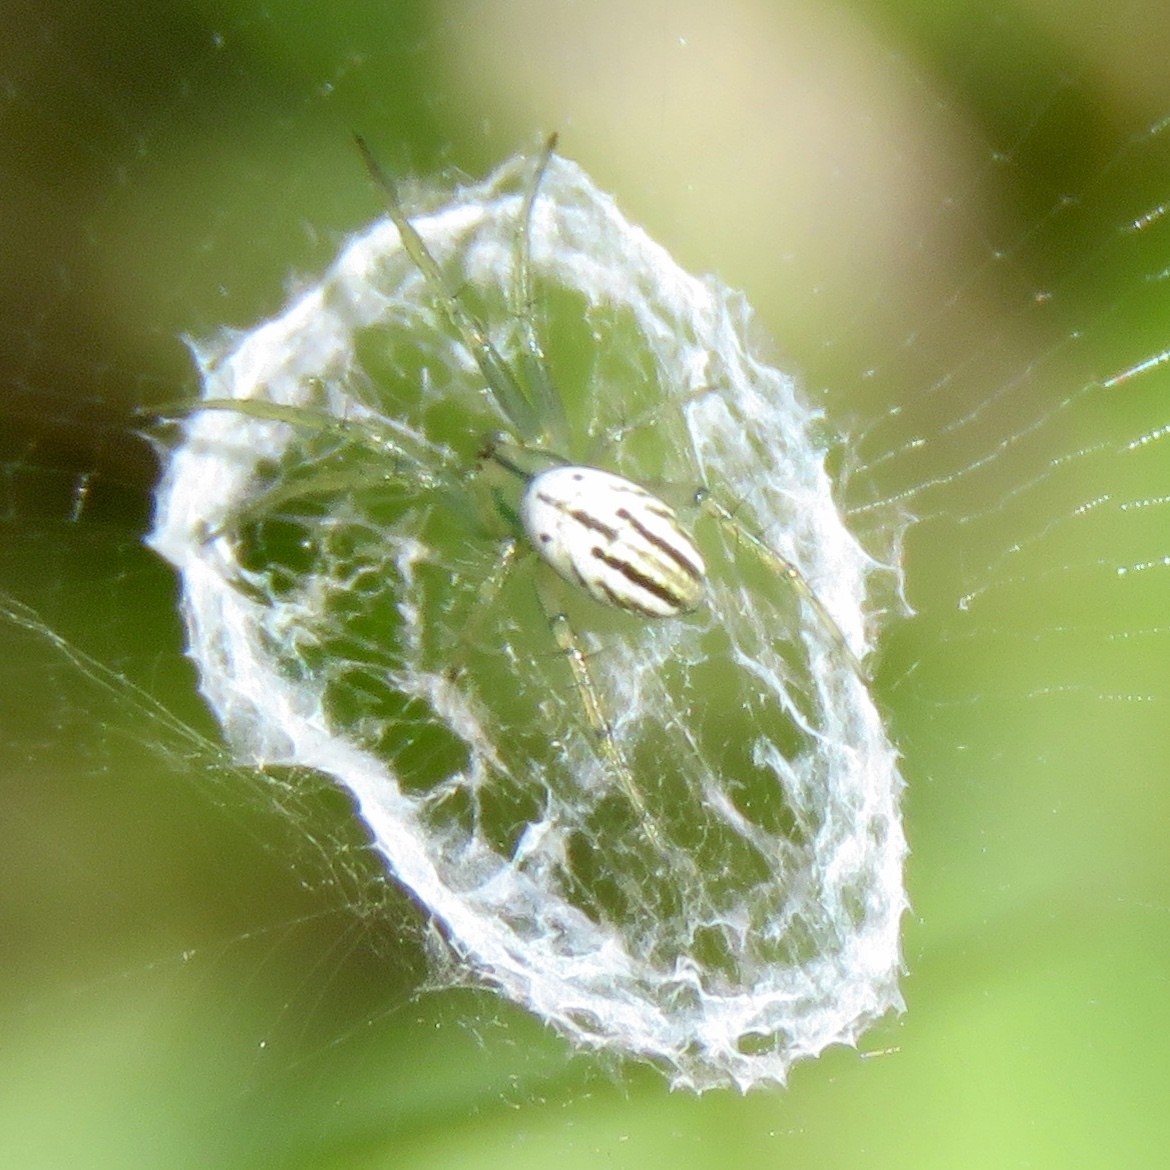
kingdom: Animalia
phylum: Arthropoda
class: Arachnida
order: Araneae
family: Araneidae
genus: Mangora
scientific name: Mangora gibberosa
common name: Lined orbweaver
